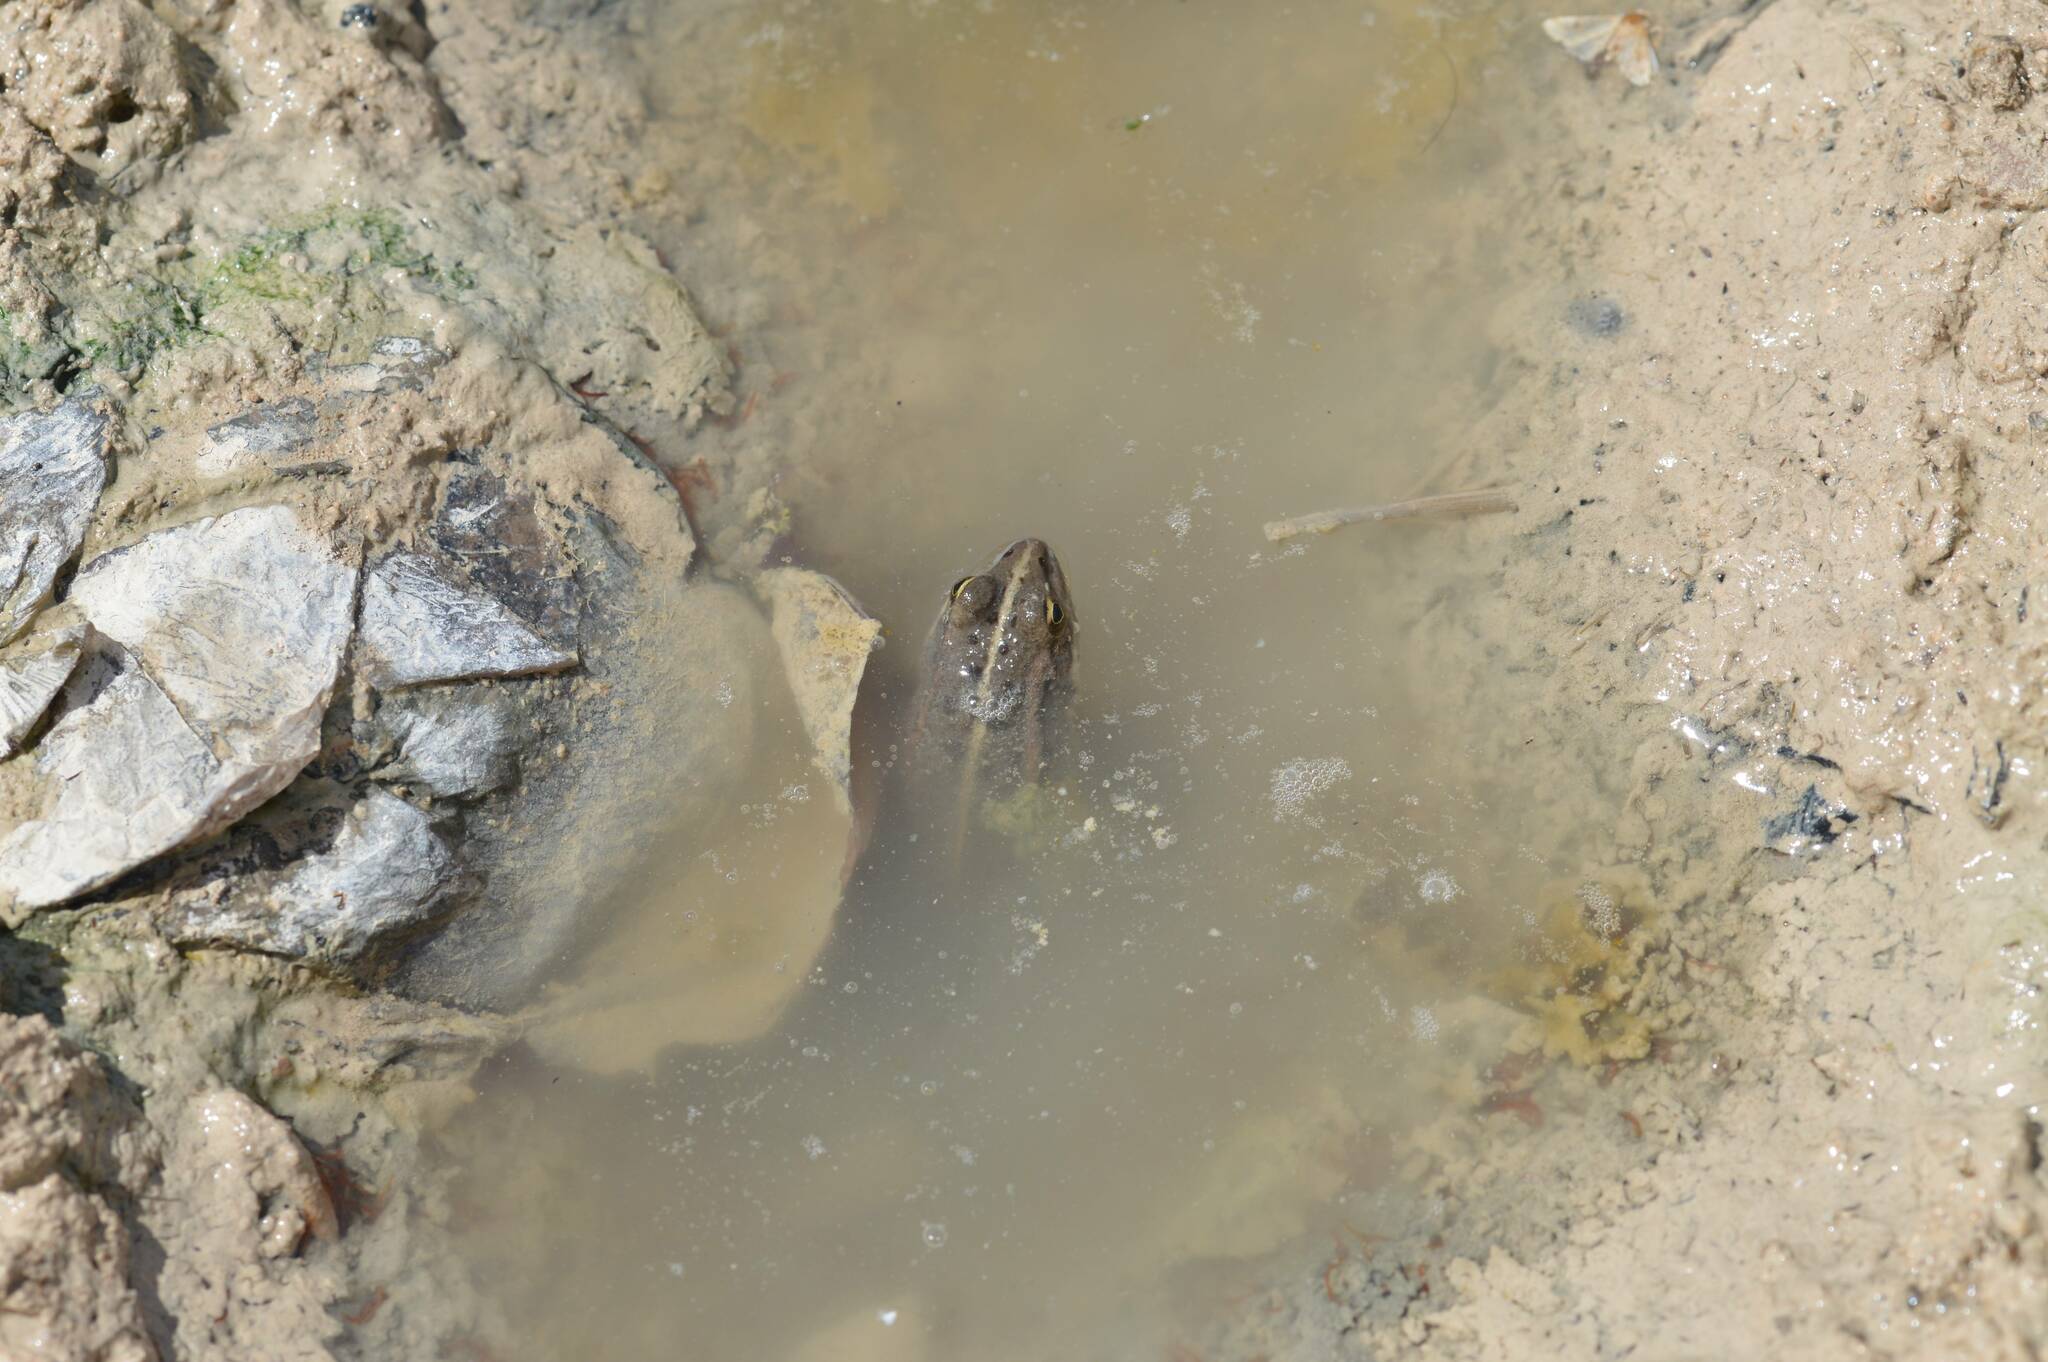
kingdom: Animalia
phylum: Chordata
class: Amphibia
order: Anura
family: Ranidae
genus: Pelophylax
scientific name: Pelophylax saharicus
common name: Sahara frog
